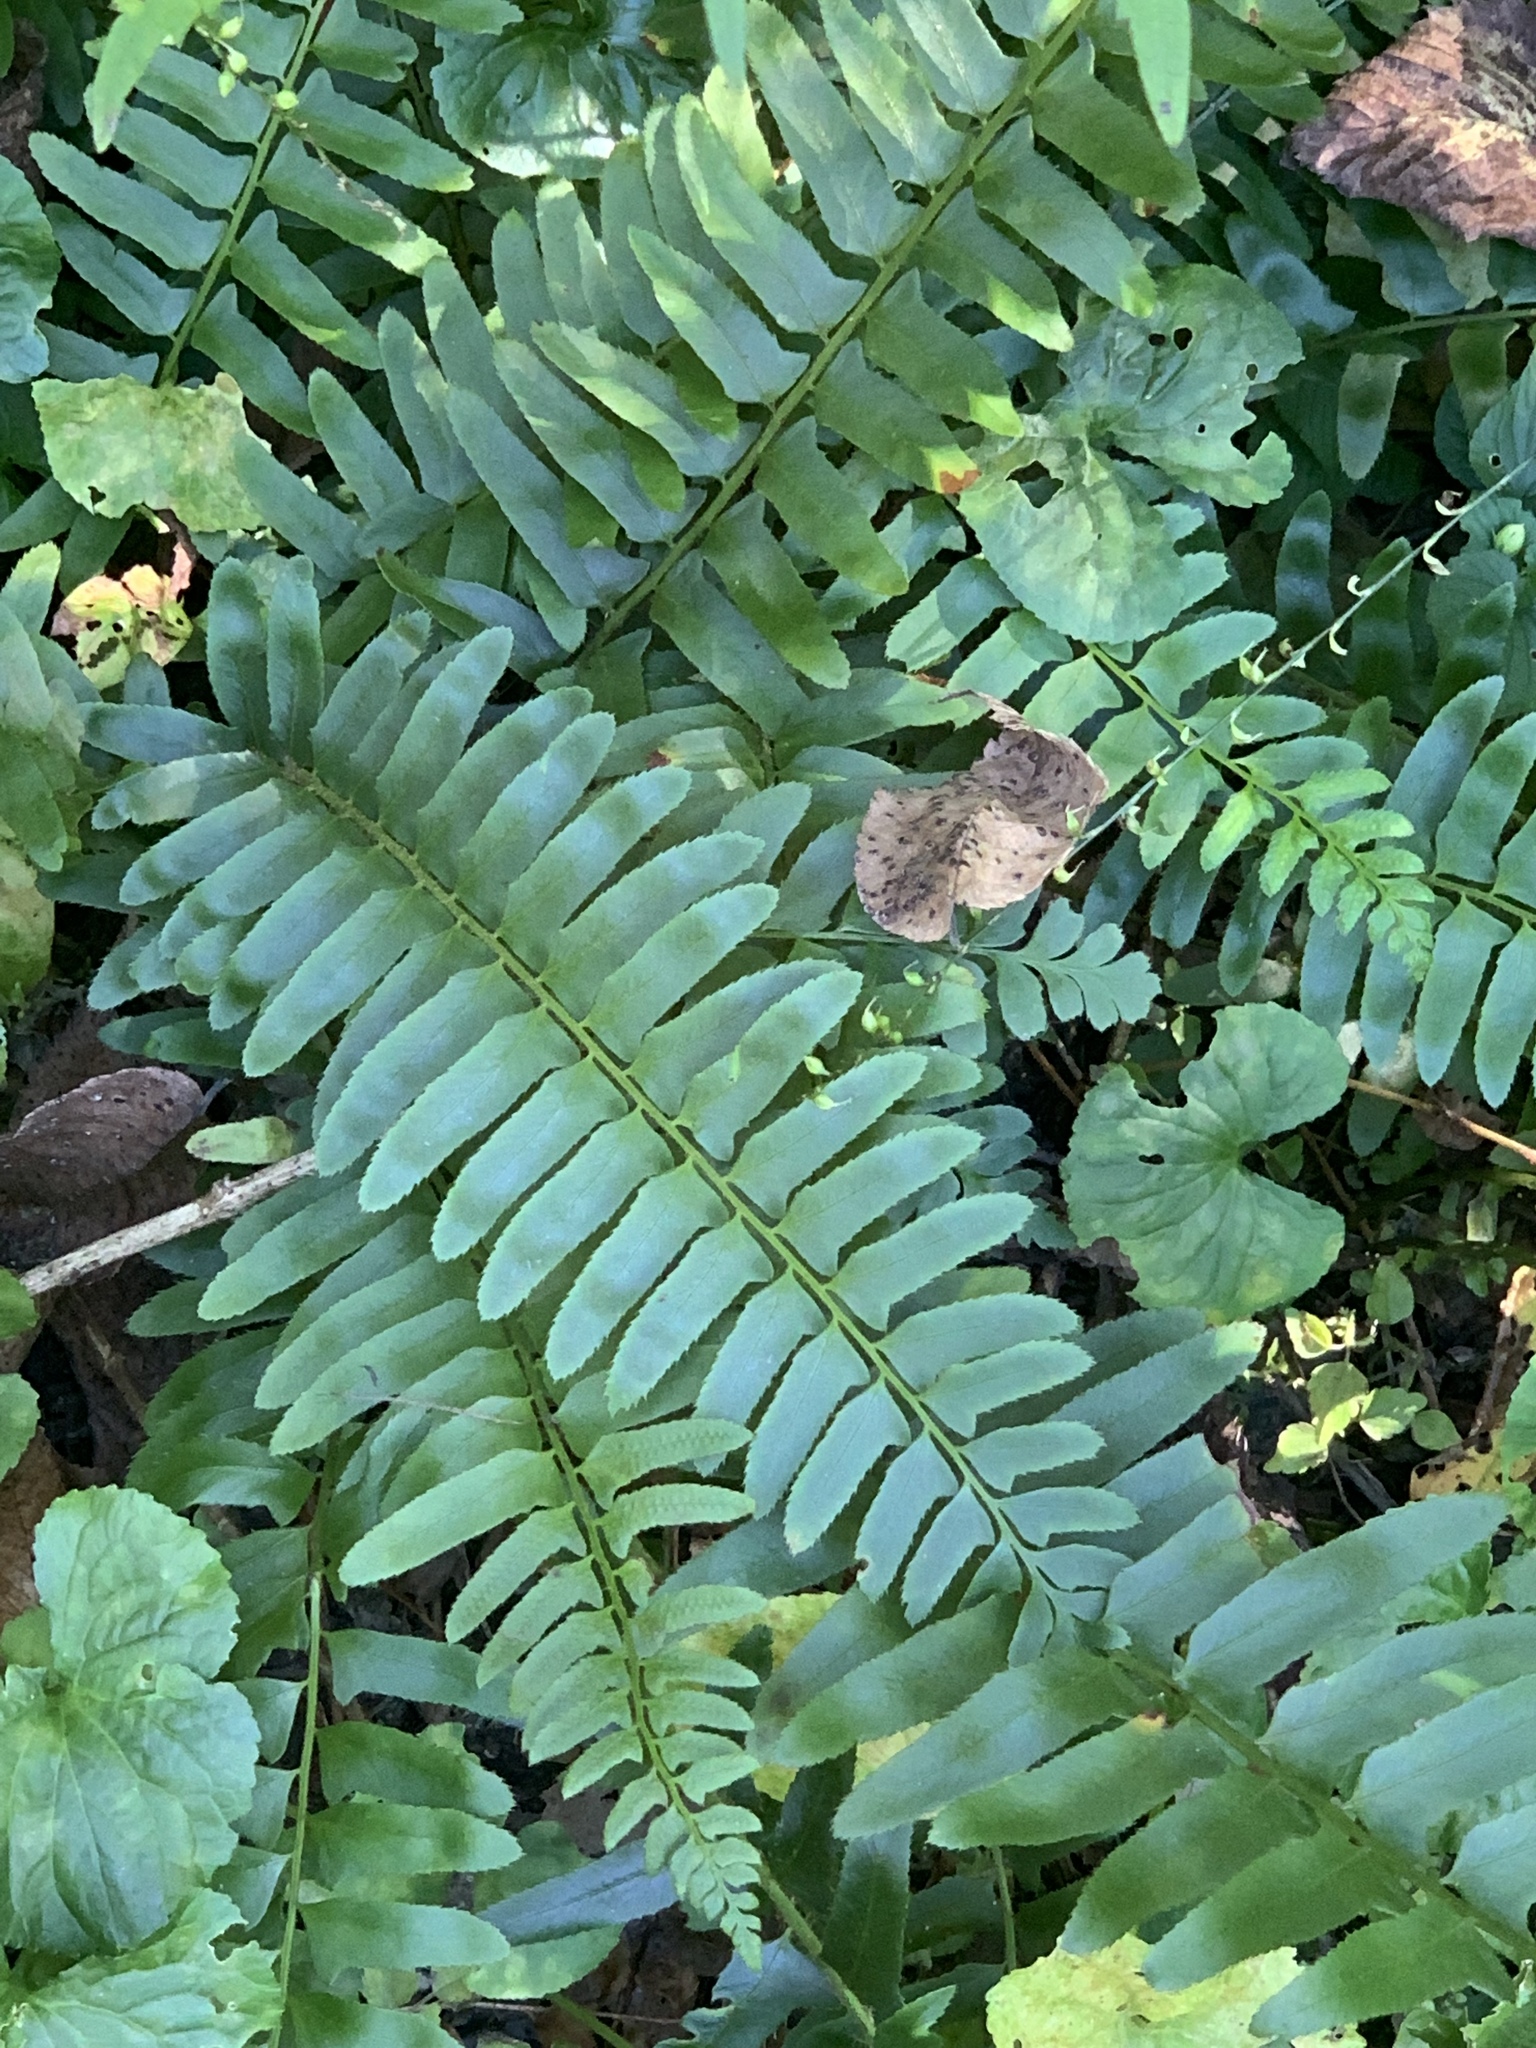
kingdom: Plantae
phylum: Tracheophyta
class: Polypodiopsida
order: Polypodiales
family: Dryopteridaceae
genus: Polystichum
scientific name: Polystichum acrostichoides
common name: Christmas fern
